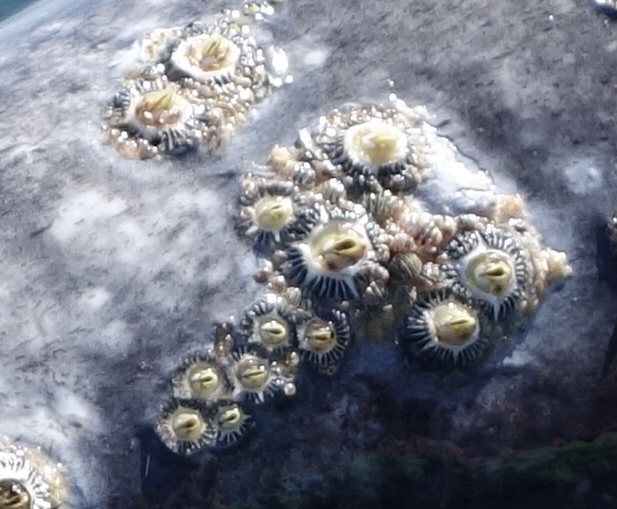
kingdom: Animalia
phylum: Arthropoda
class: Maxillopoda
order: Sessilia
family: Coronulidae
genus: Cryptolepas
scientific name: Cryptolepas rhachianecti
